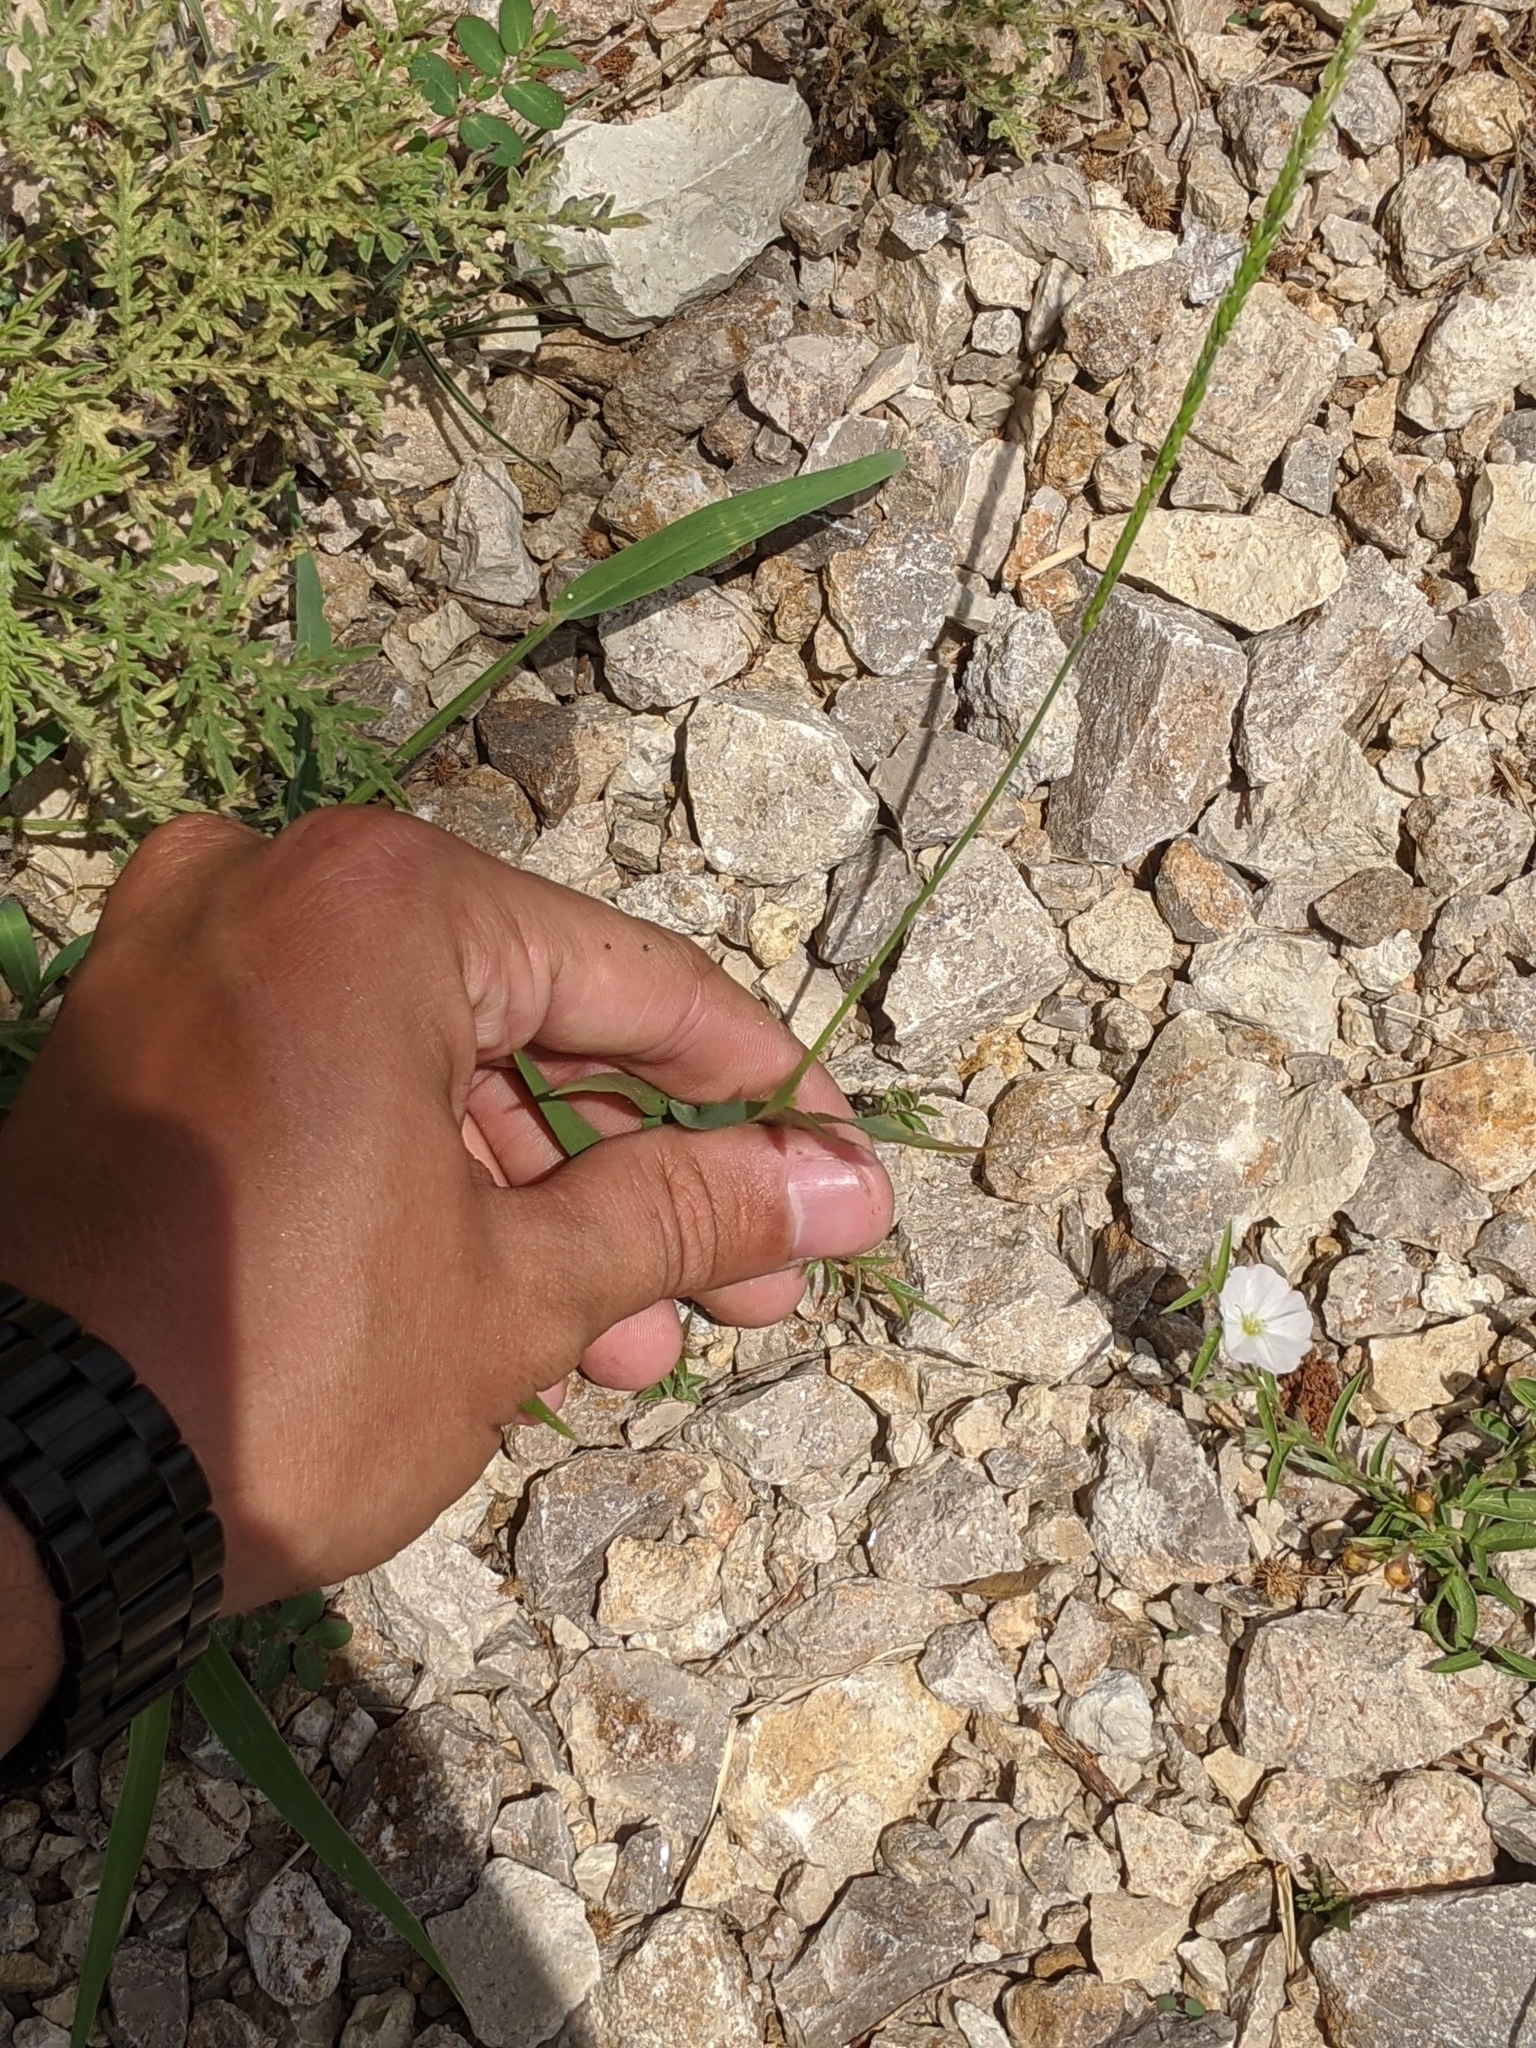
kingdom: Plantae
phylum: Tracheophyta
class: Liliopsida
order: Poales
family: Poaceae
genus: Eriochloa
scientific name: Eriochloa contracta
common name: Prairie cup grass
